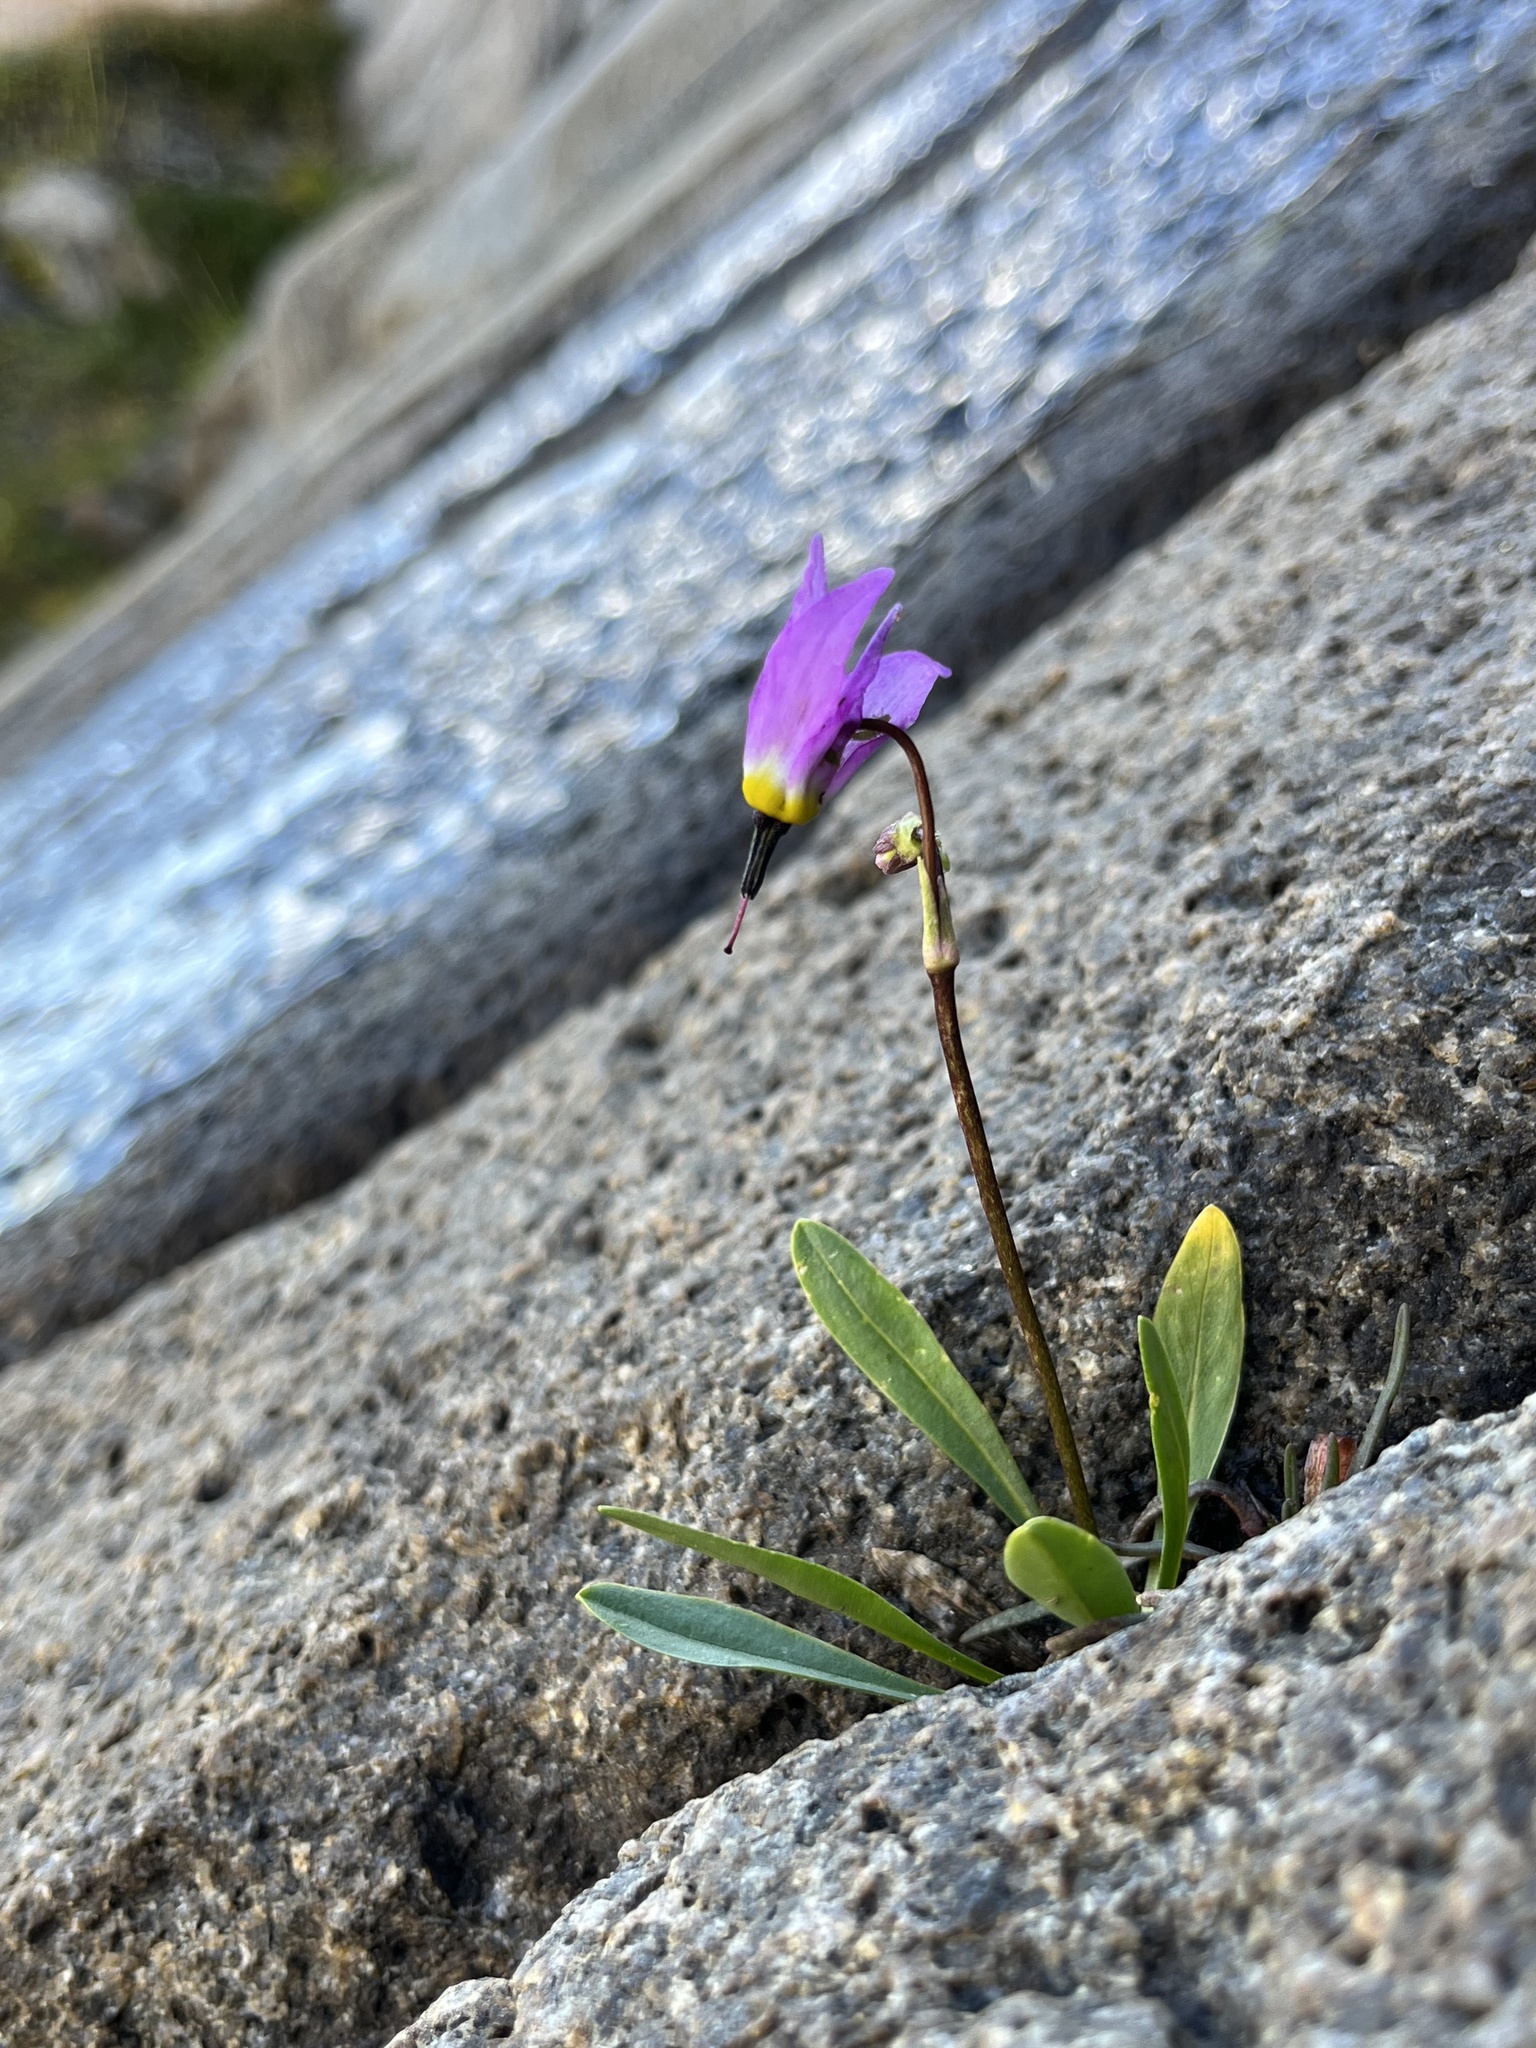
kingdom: Plantae
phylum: Tracheophyta
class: Magnoliopsida
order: Ericales
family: Primulaceae
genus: Dodecatheon
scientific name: Dodecatheon alpinum
